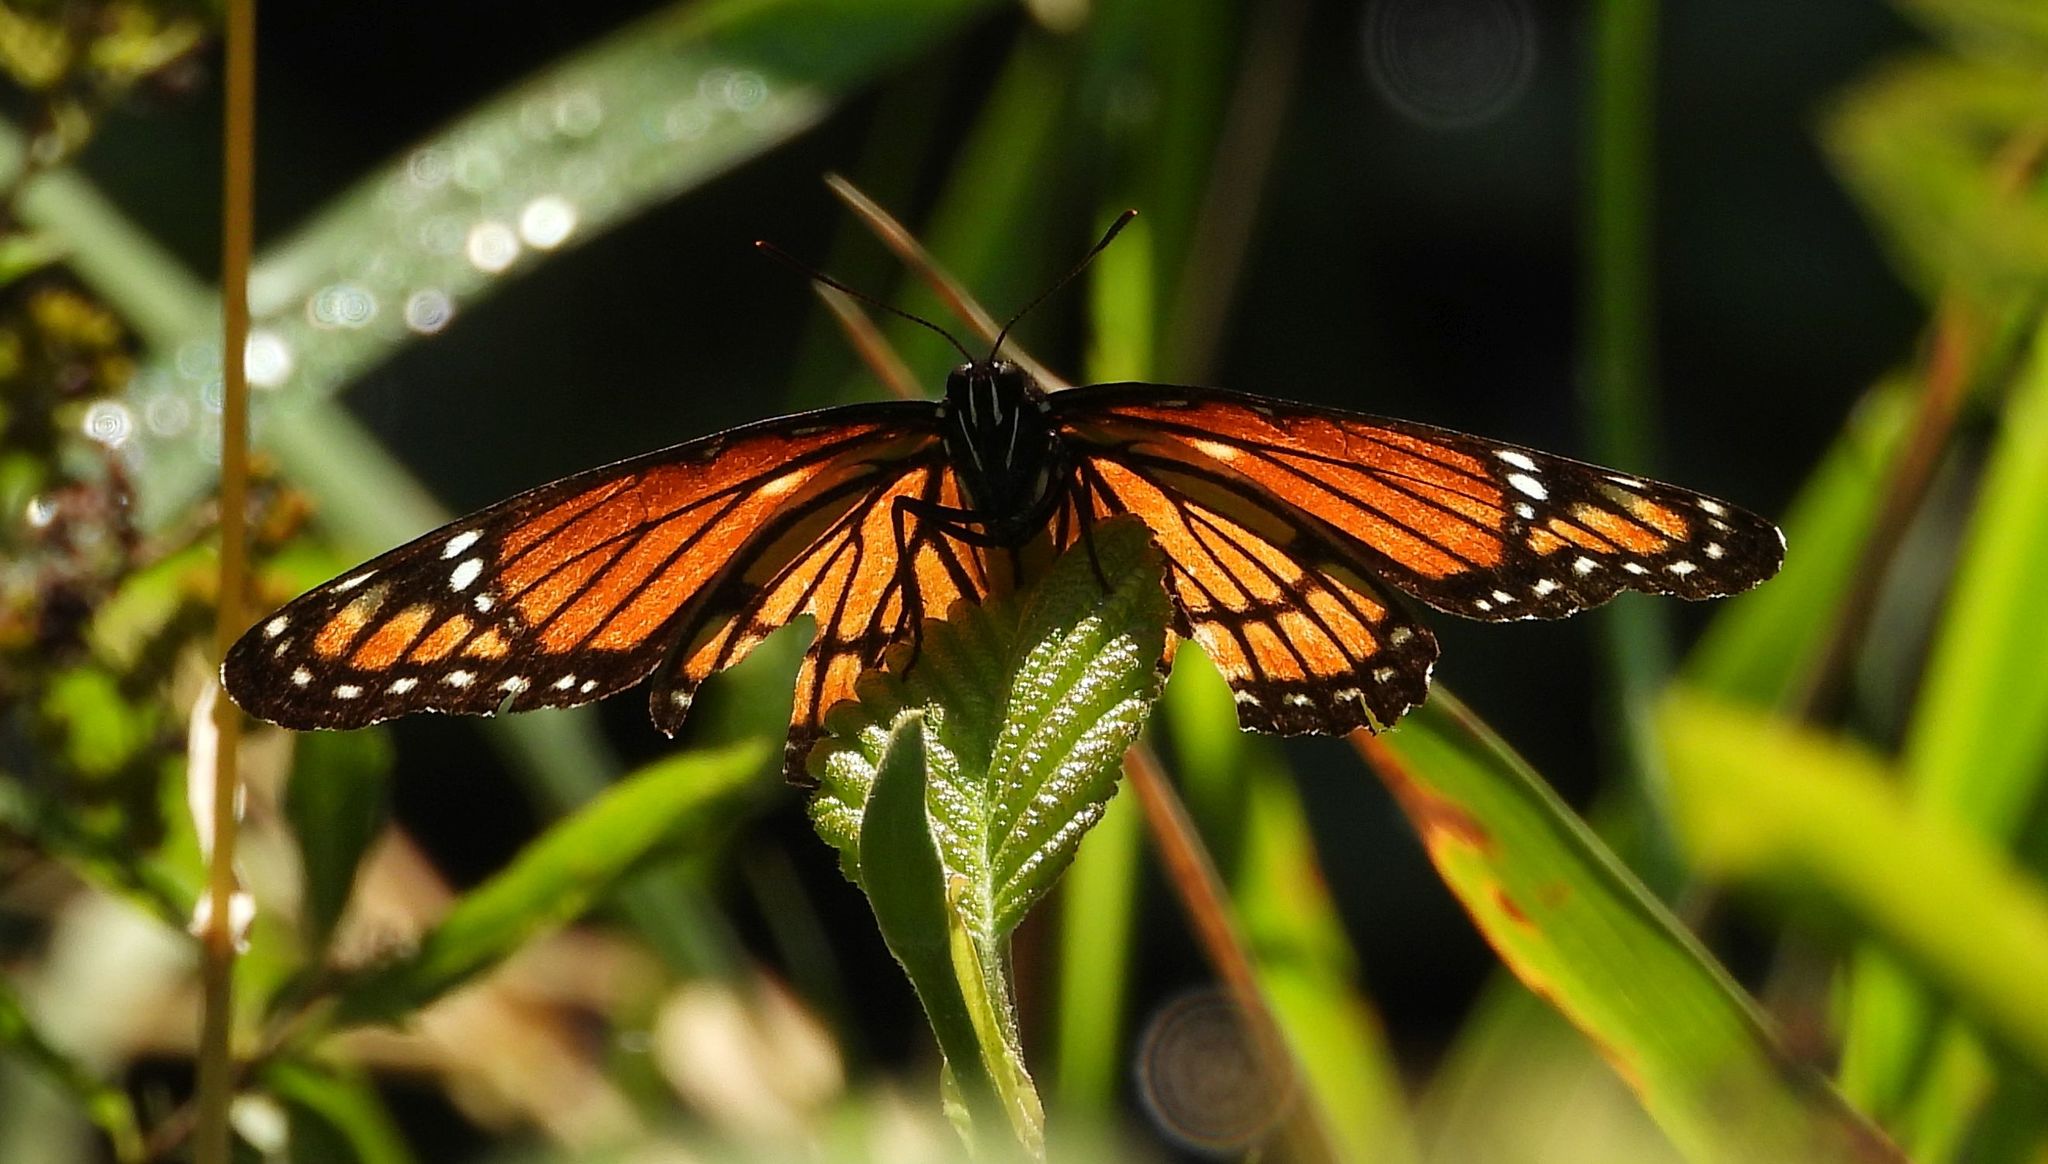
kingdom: Animalia
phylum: Arthropoda
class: Insecta
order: Lepidoptera
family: Nymphalidae
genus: Limenitis
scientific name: Limenitis archippus
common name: Viceroy
